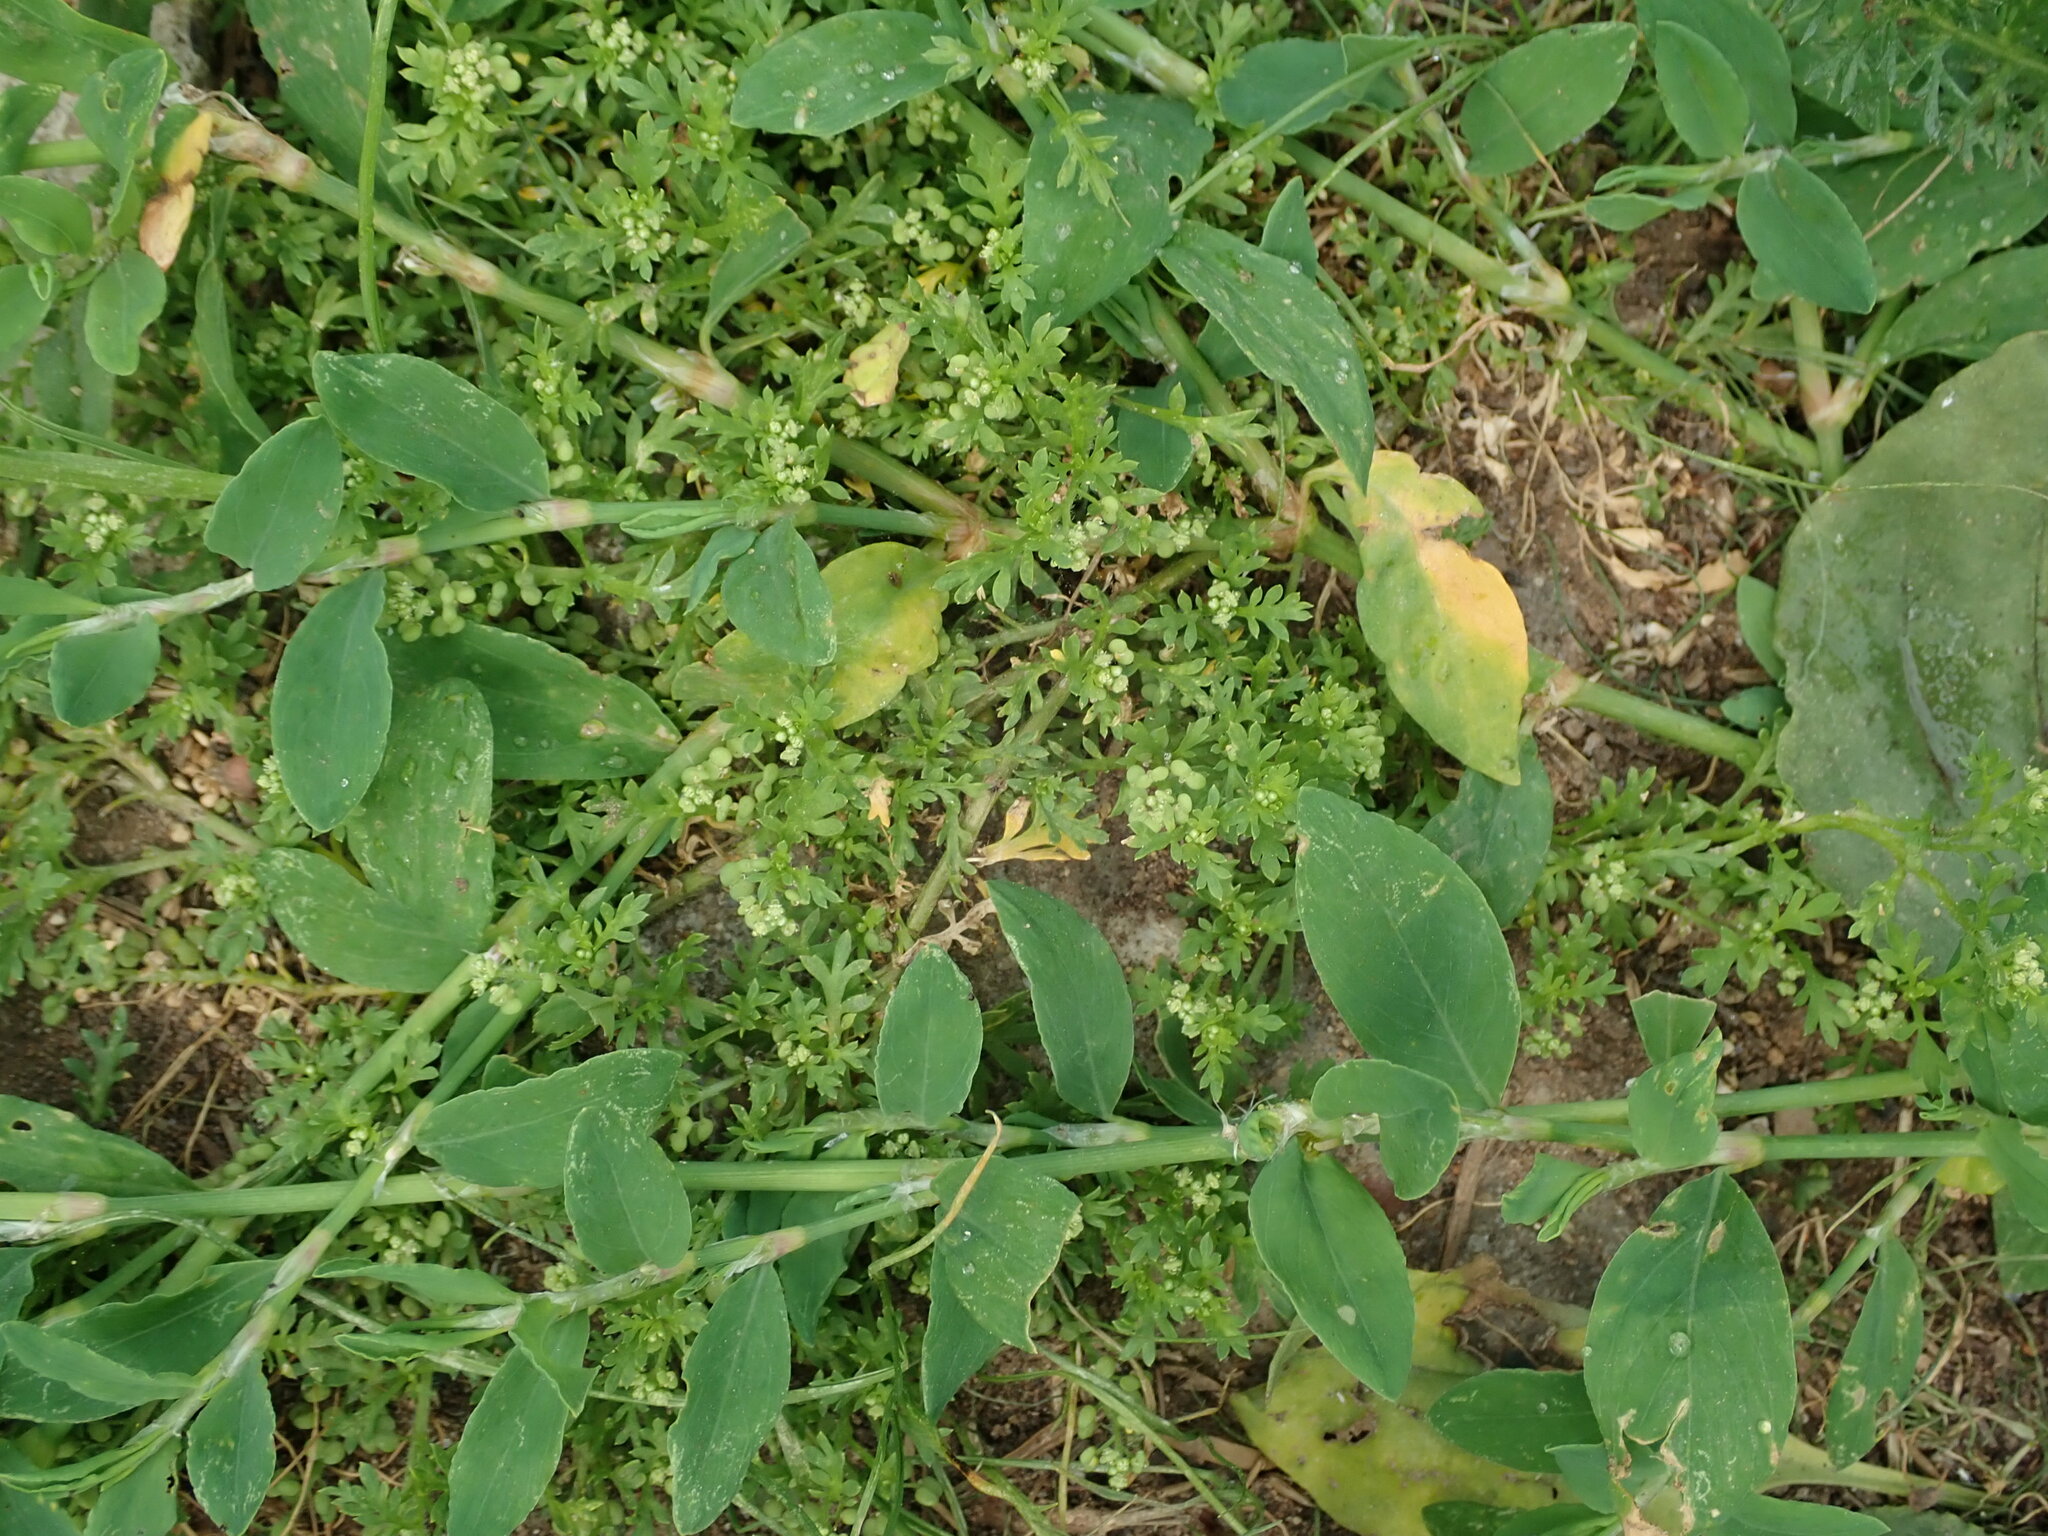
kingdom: Plantae
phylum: Tracheophyta
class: Magnoliopsida
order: Brassicales
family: Brassicaceae
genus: Lepidium
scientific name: Lepidium didymum
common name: Lesser swinecress
